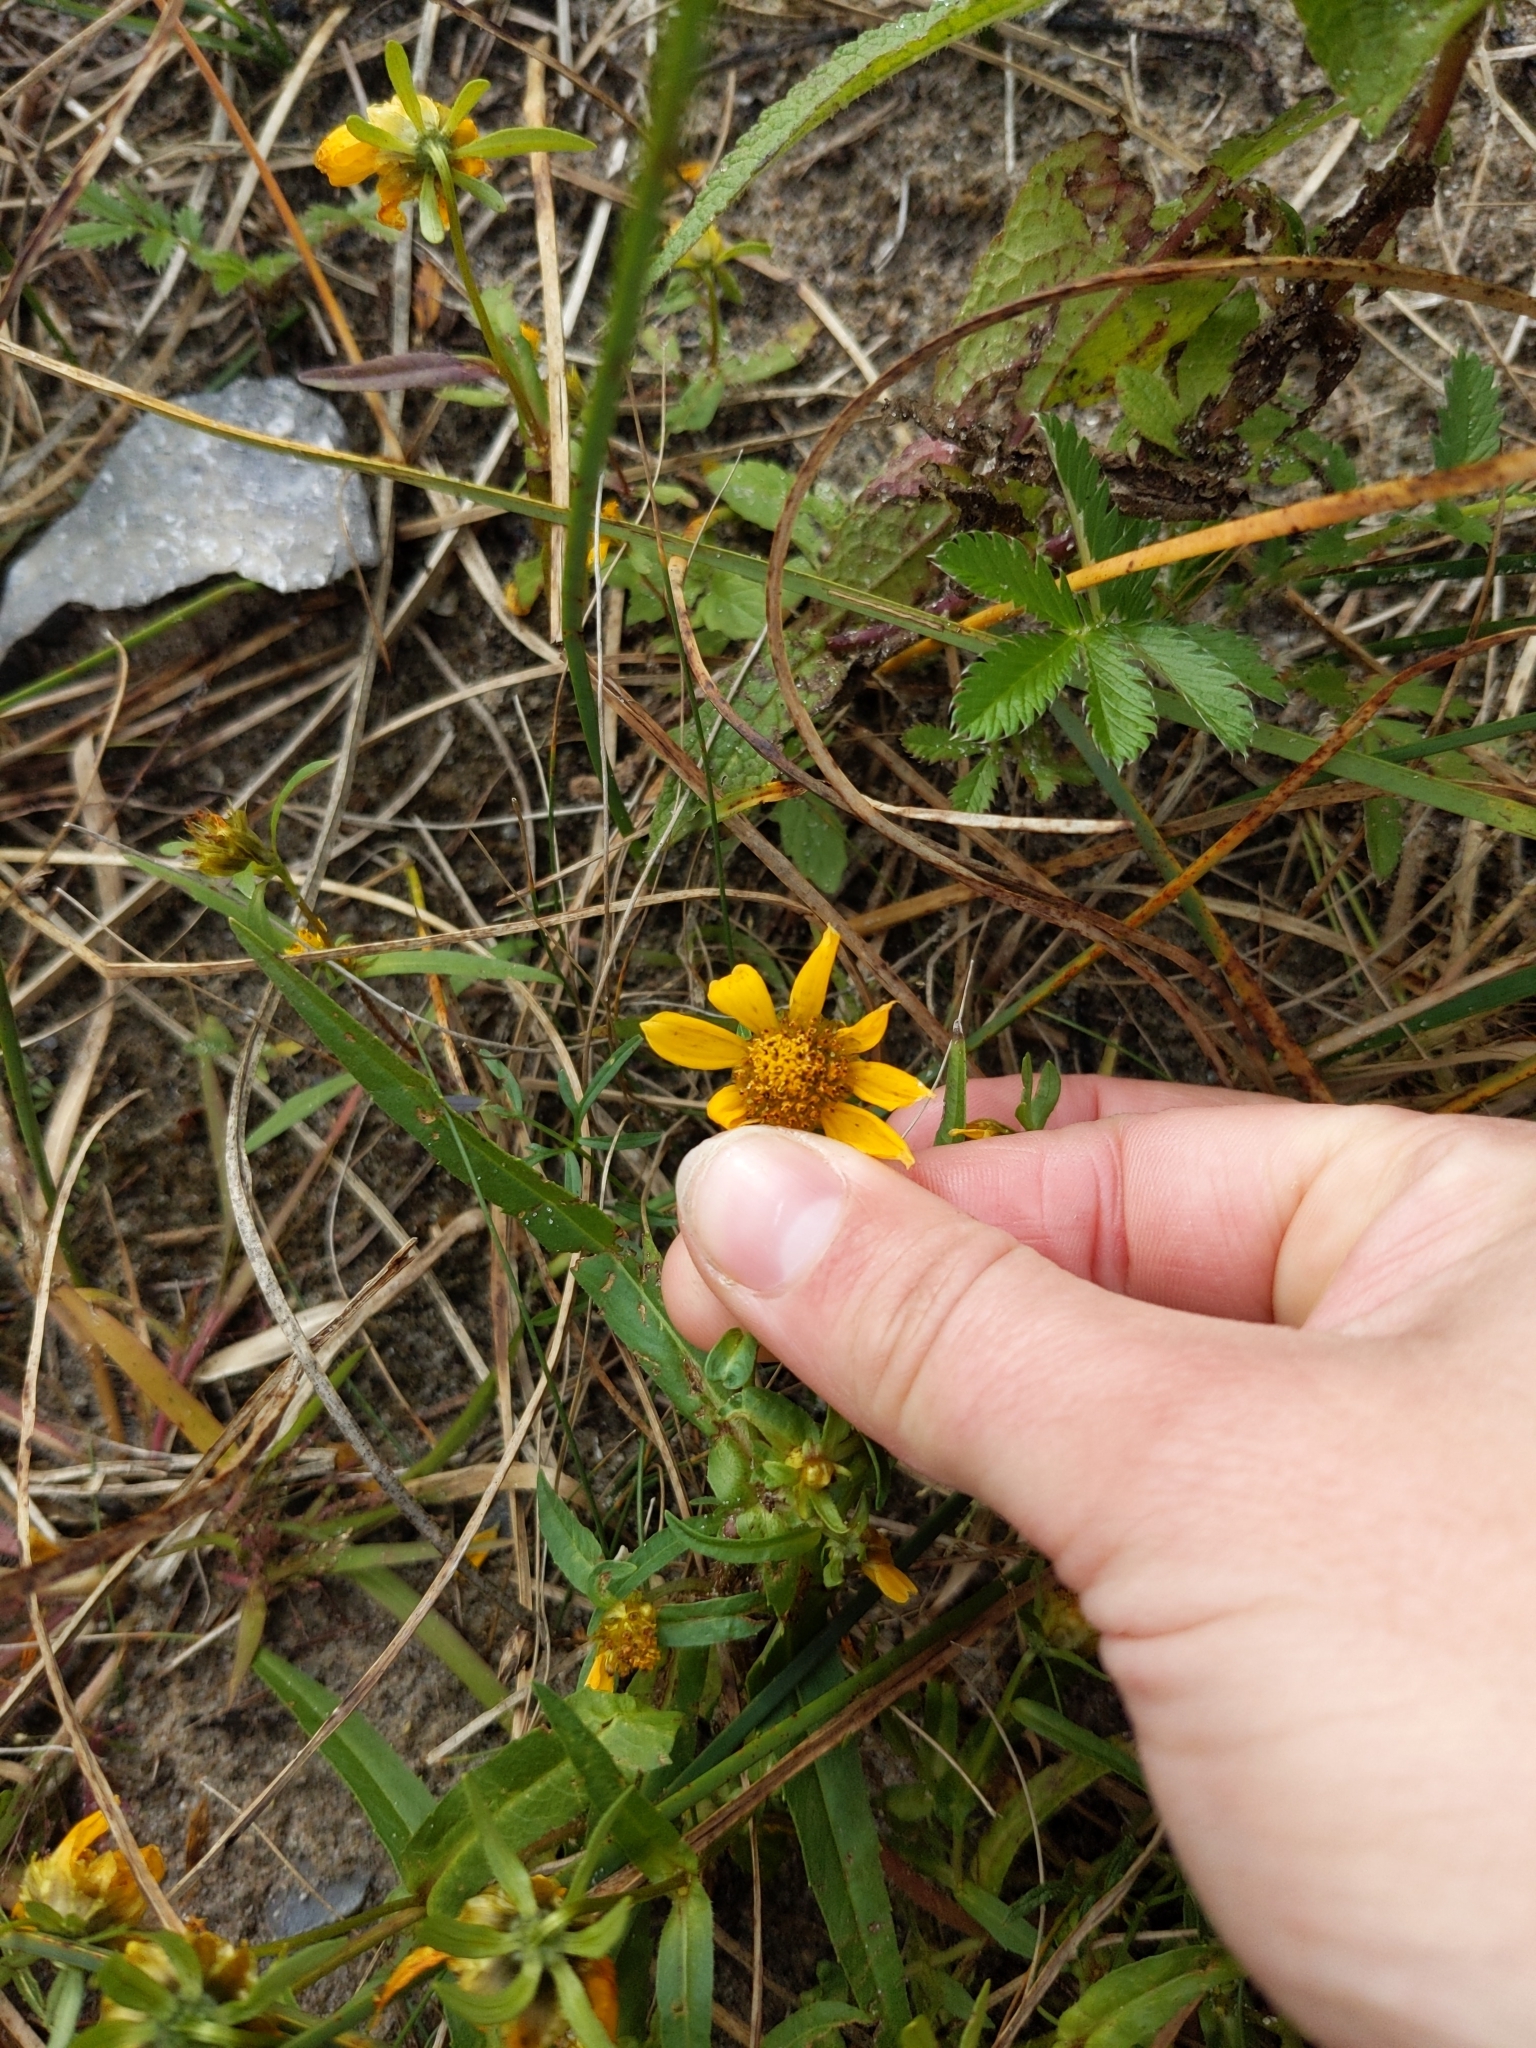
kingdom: Plantae
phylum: Tracheophyta
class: Magnoliopsida
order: Asterales
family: Asteraceae
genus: Bidens
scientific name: Bidens cernua
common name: Nodding bur-marigold
